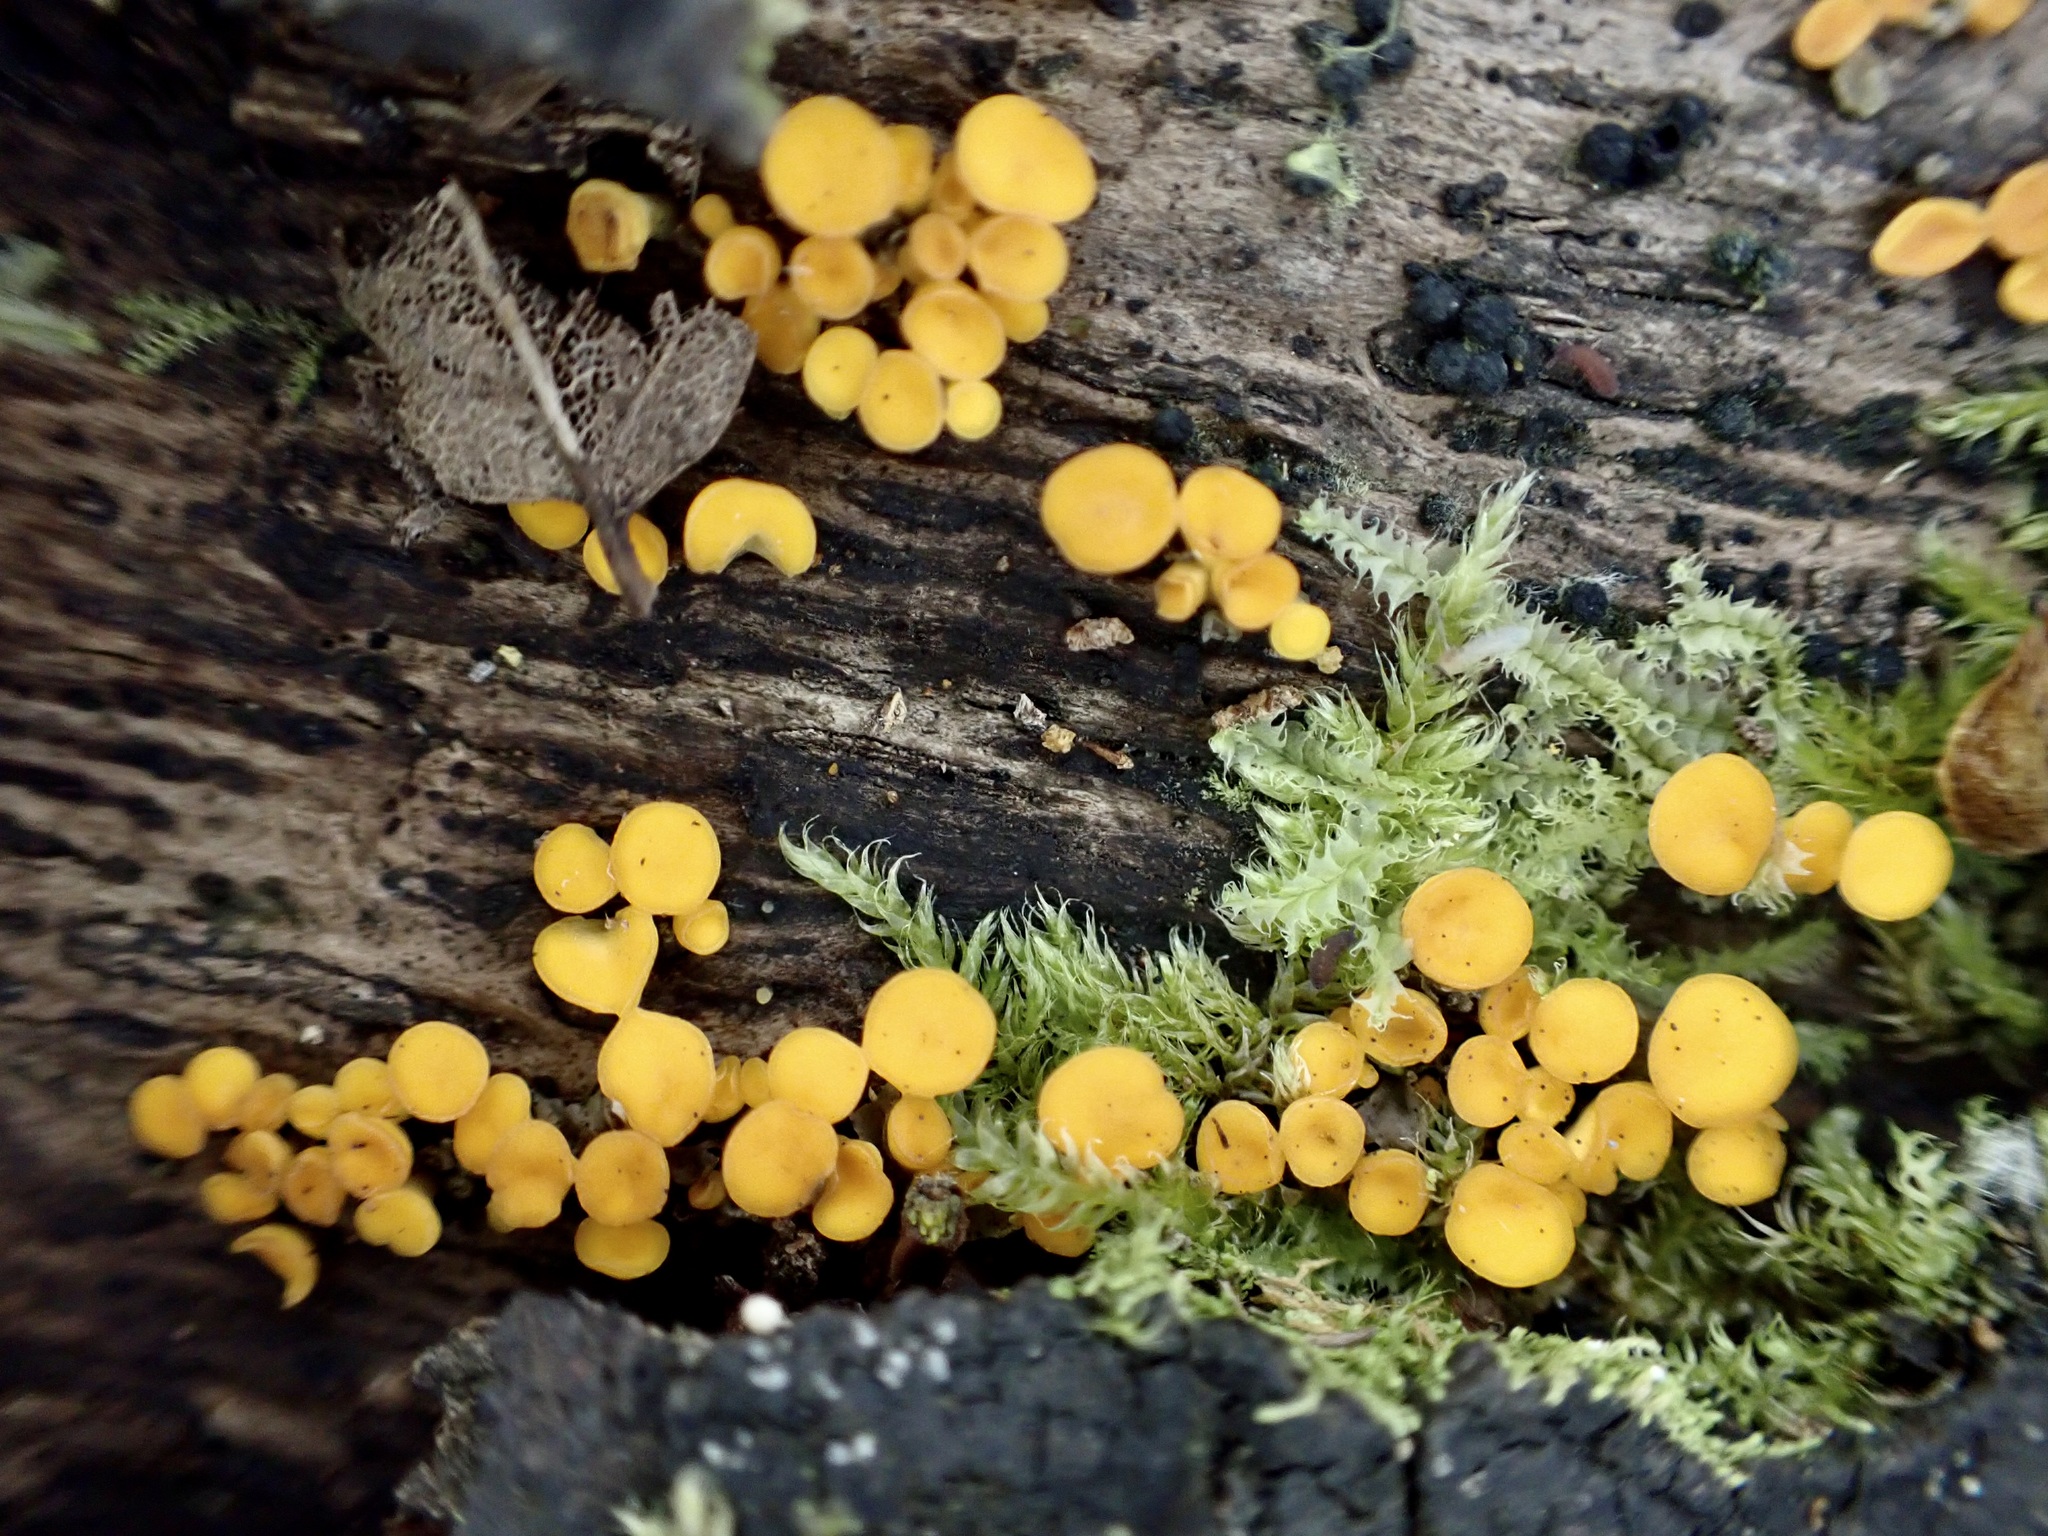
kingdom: Fungi
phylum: Ascomycota
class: Leotiomycetes
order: Helotiales
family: Pezizellaceae
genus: Calycina
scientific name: Calycina citrina
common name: Yellow fairy cups
